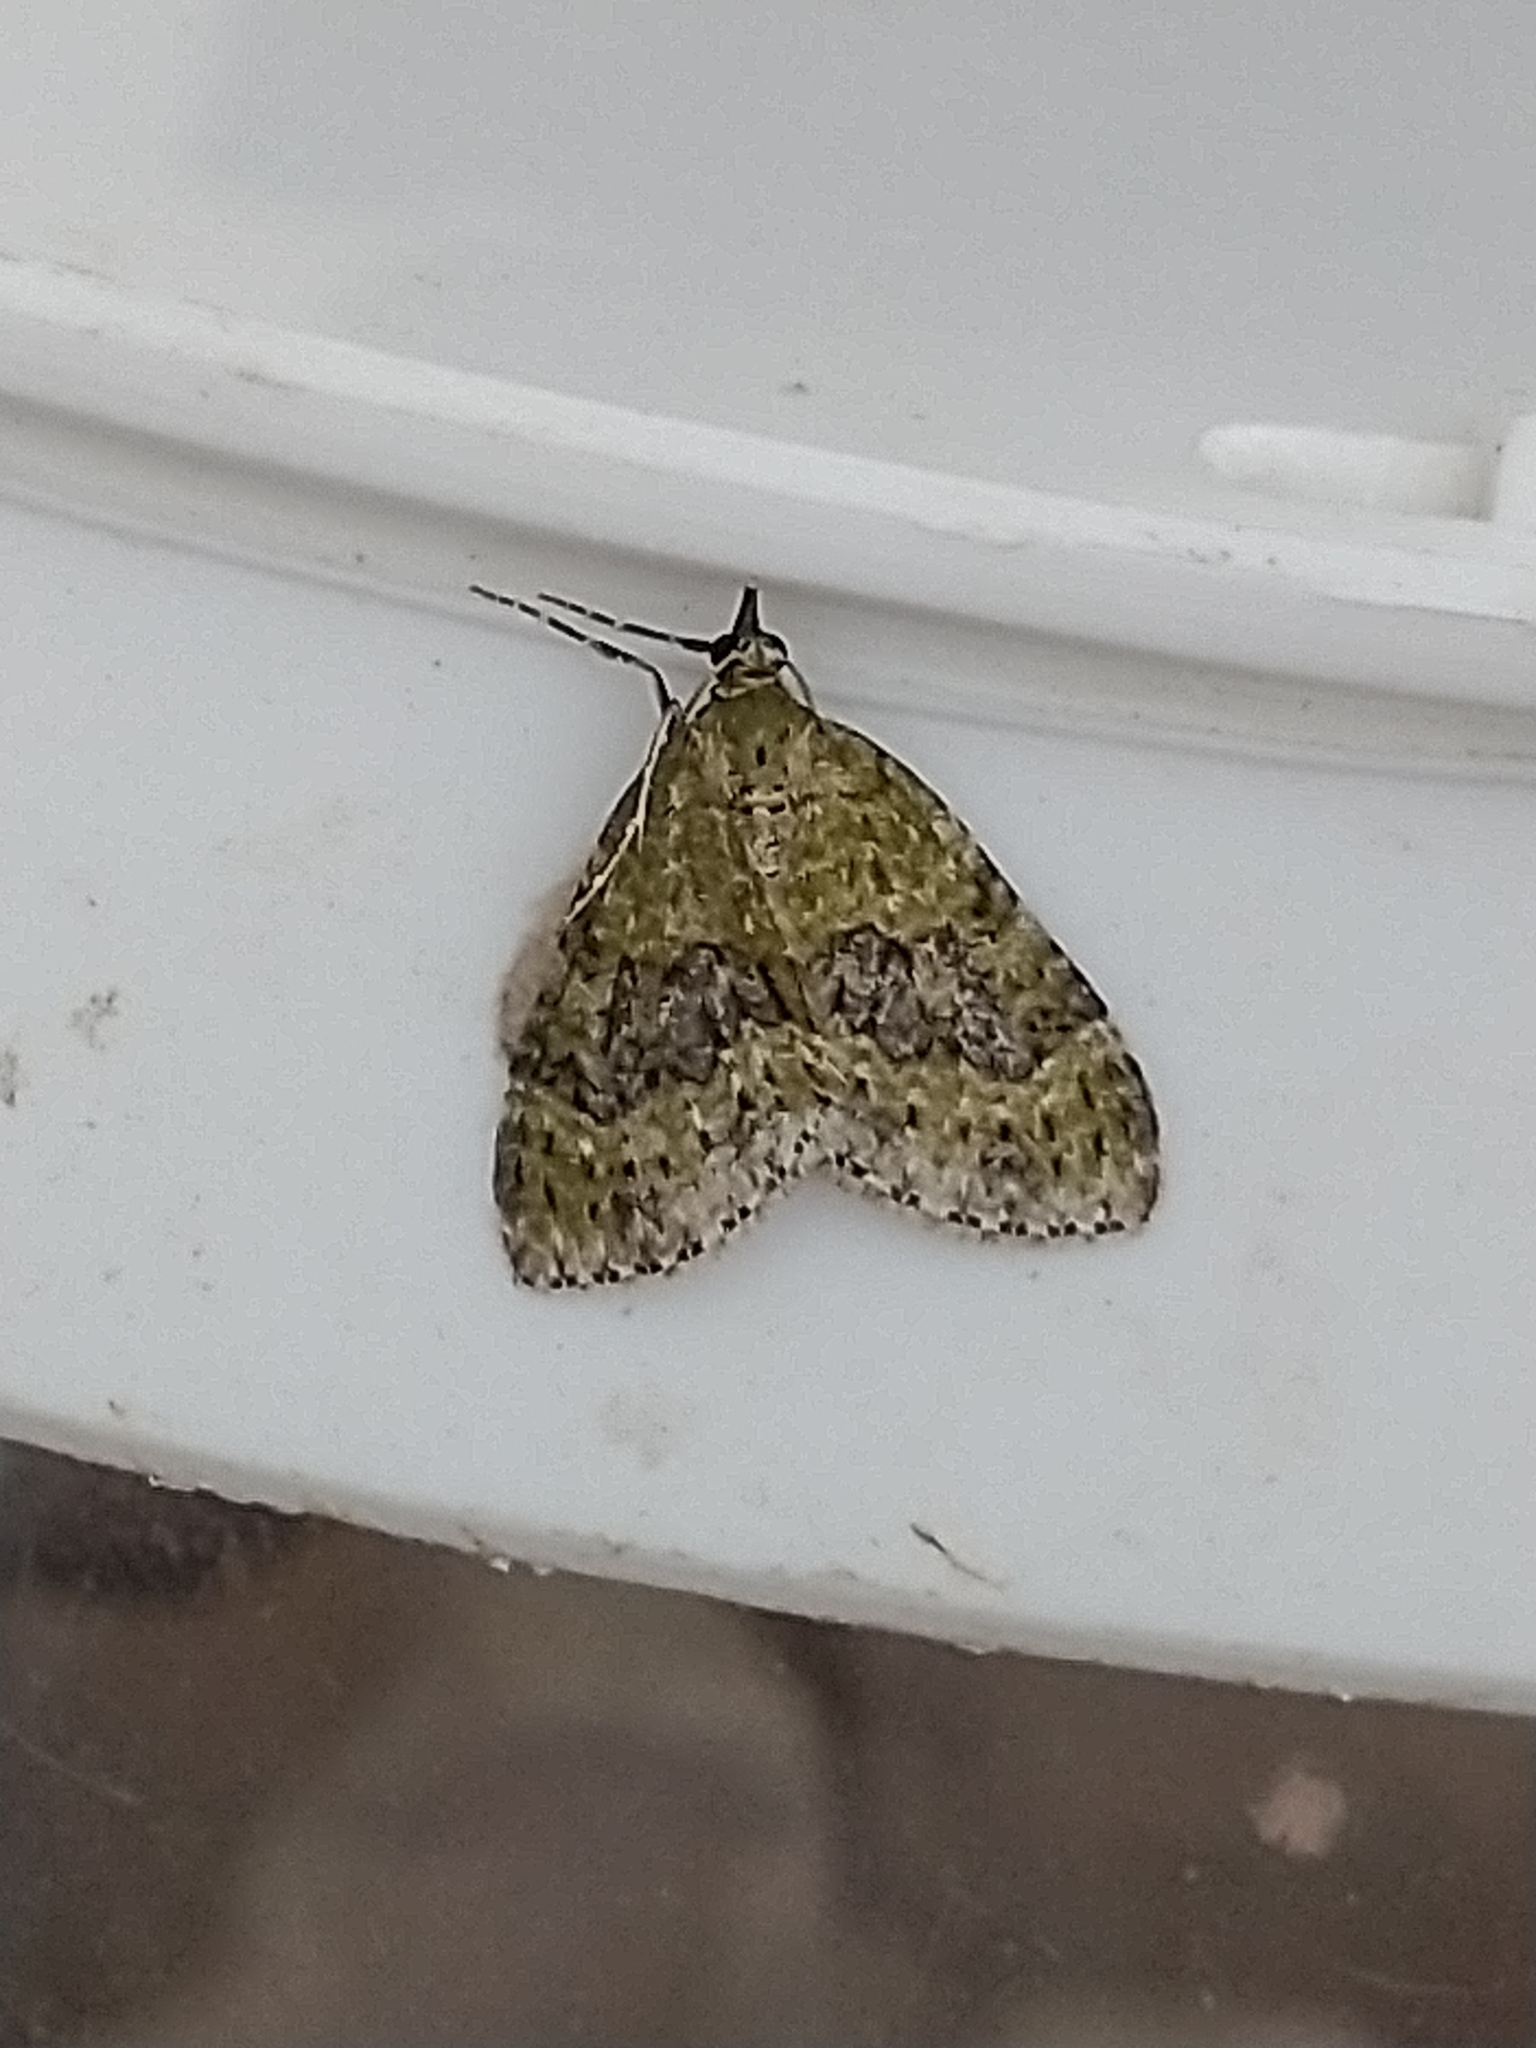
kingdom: Animalia
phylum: Arthropoda
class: Insecta
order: Lepidoptera
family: Geometridae
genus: Acasis
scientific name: Acasis viretata
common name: Yellow-barred brindle
